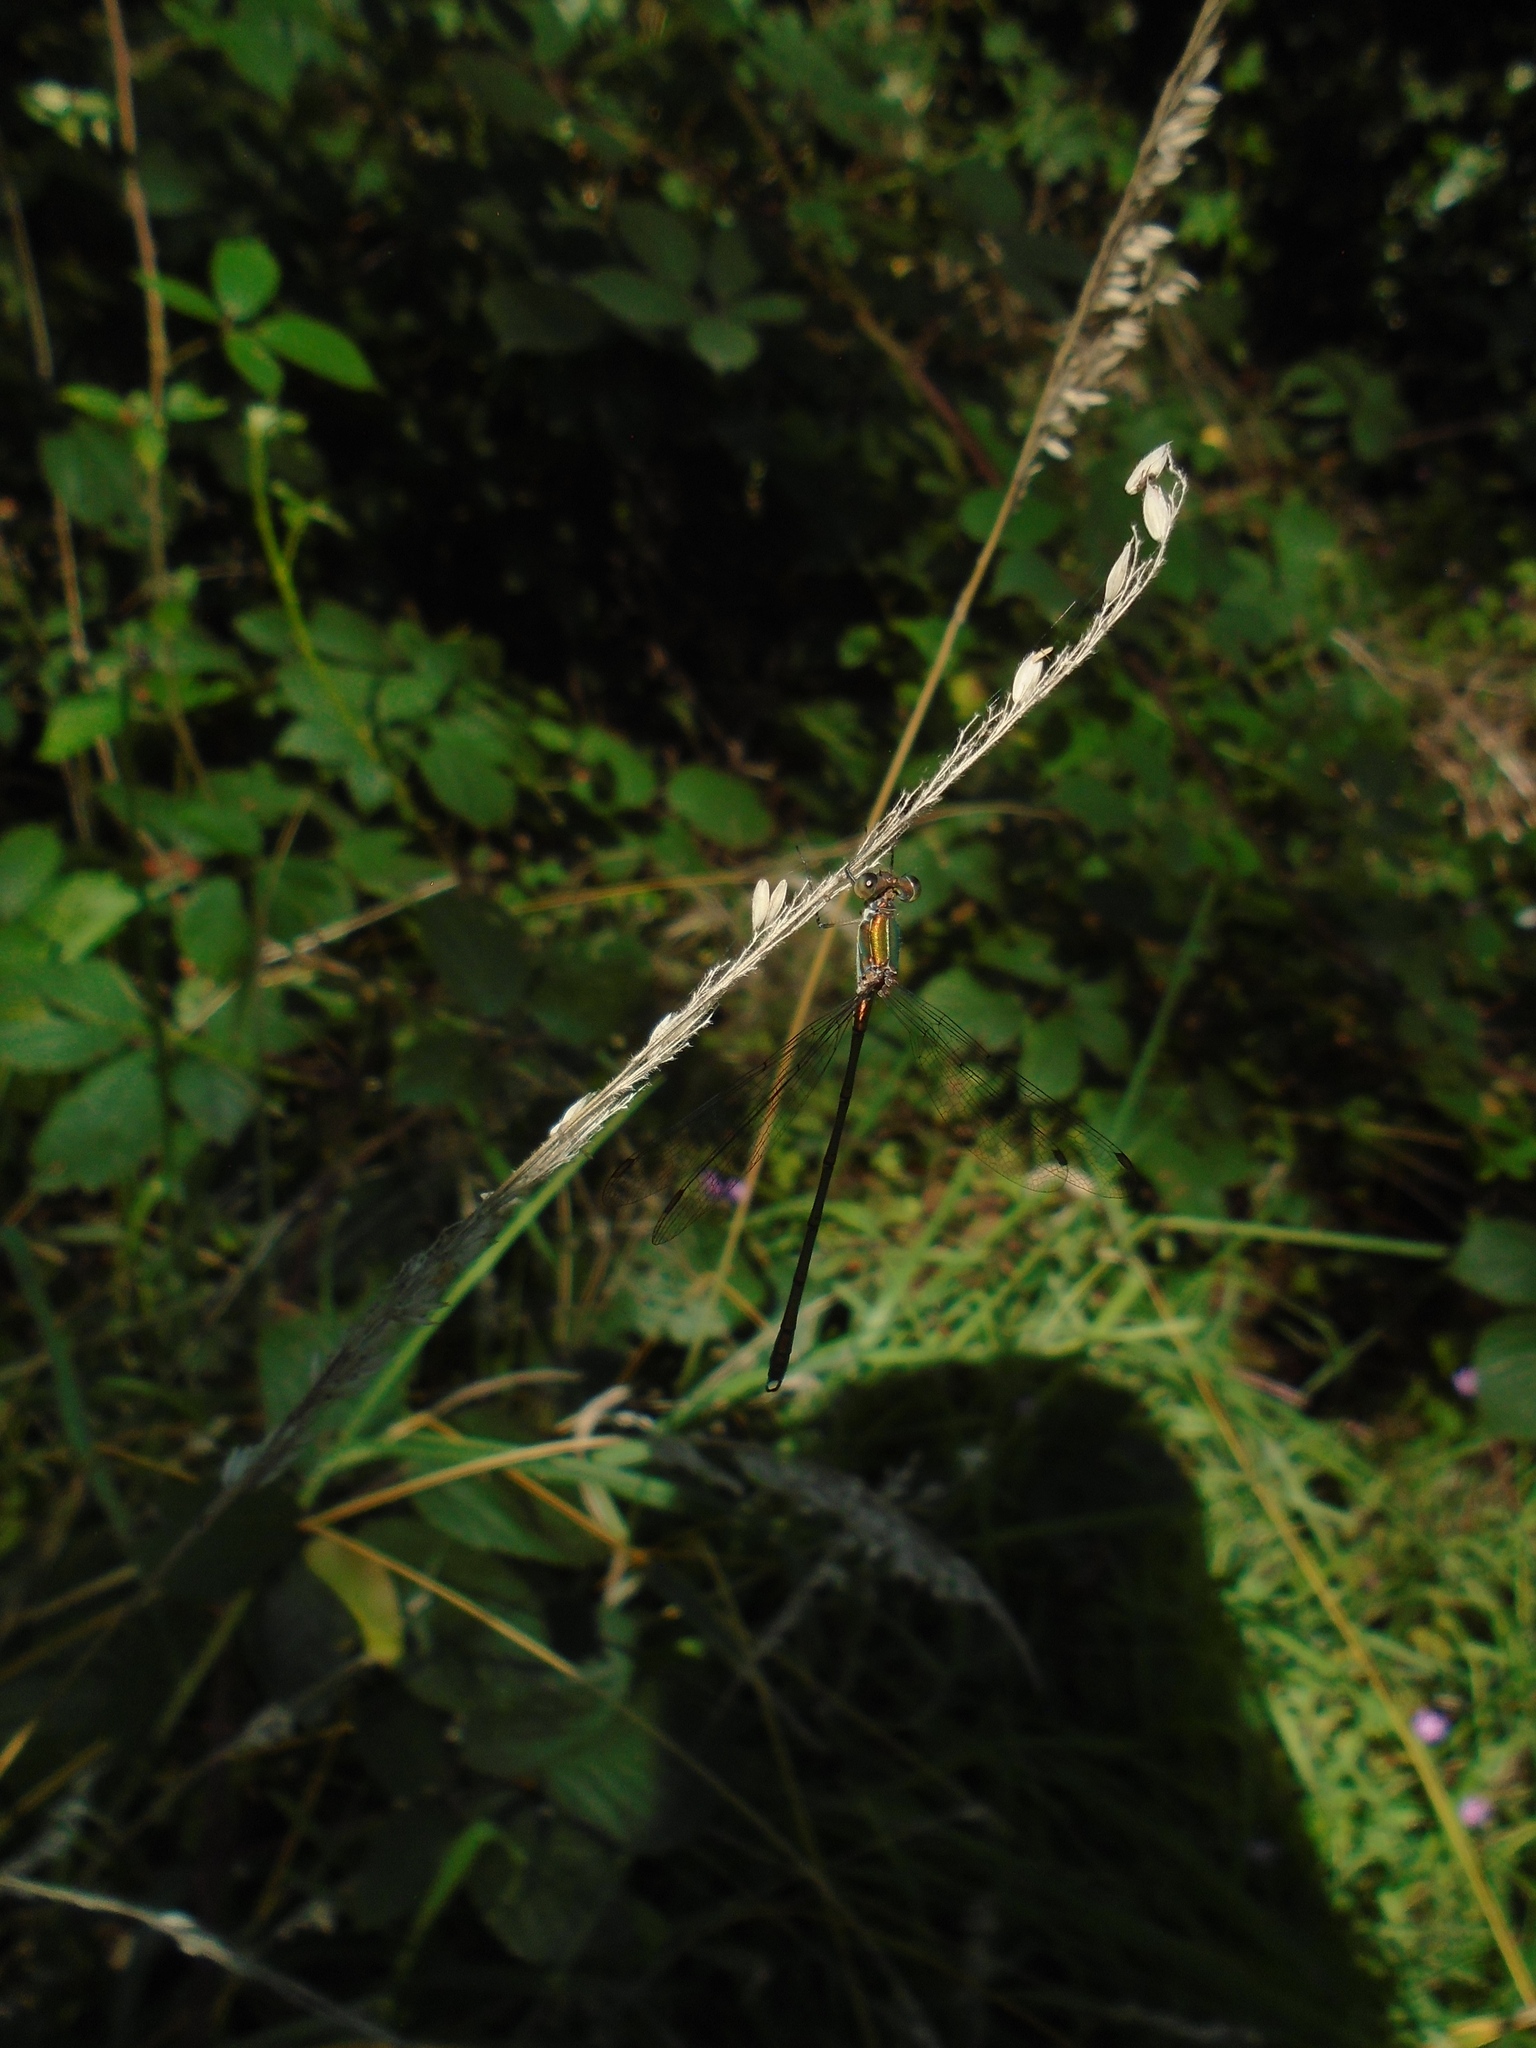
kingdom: Animalia
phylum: Arthropoda
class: Insecta
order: Odonata
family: Lestidae
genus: Chalcolestes
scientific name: Chalcolestes viridis
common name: Green emerald damselfly
